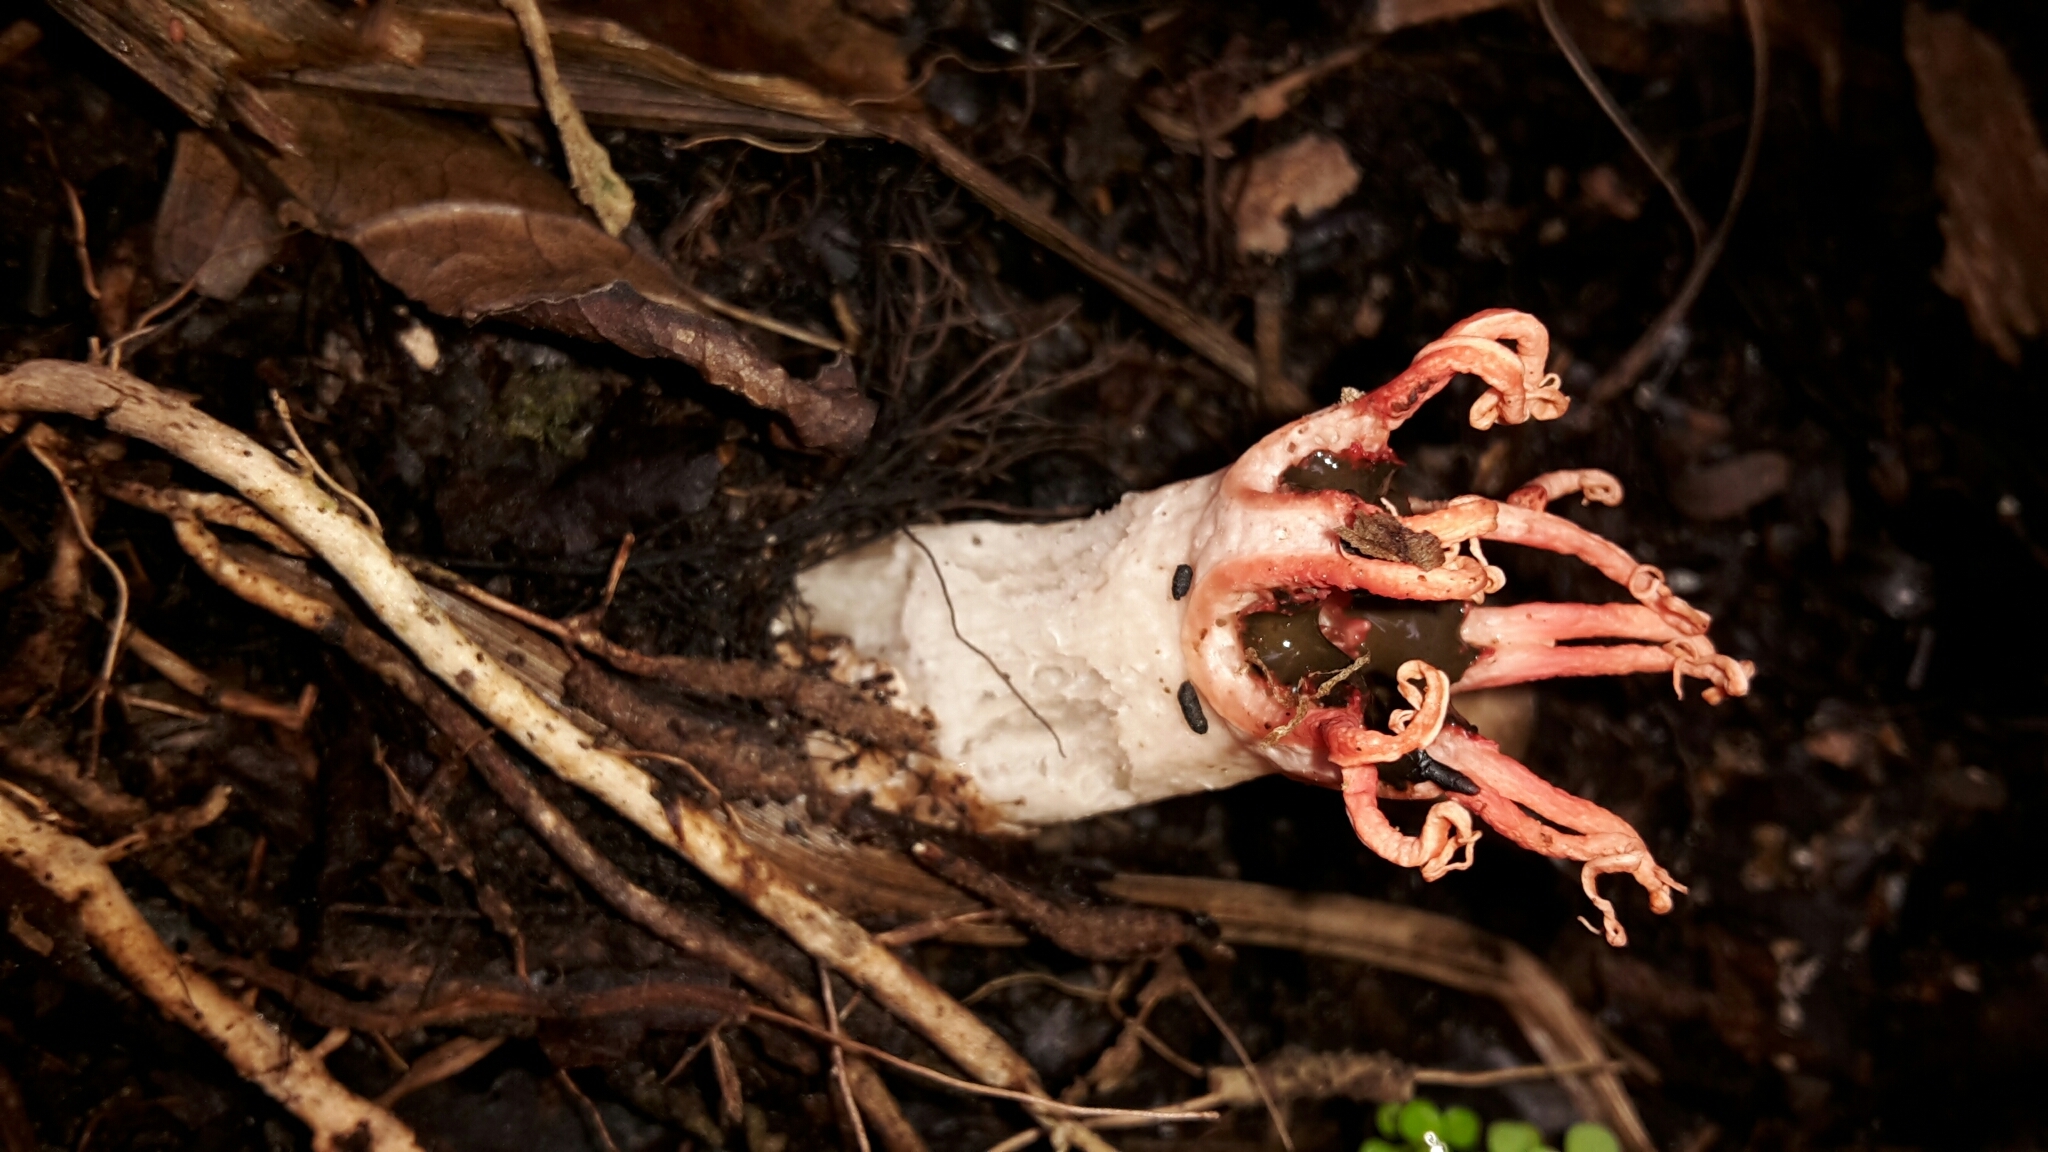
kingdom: Fungi
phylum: Basidiomycota
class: Agaricomycetes
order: Phallales
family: Phallaceae
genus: Aseroe
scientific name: Aseroe rubra
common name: Starfish fungus
